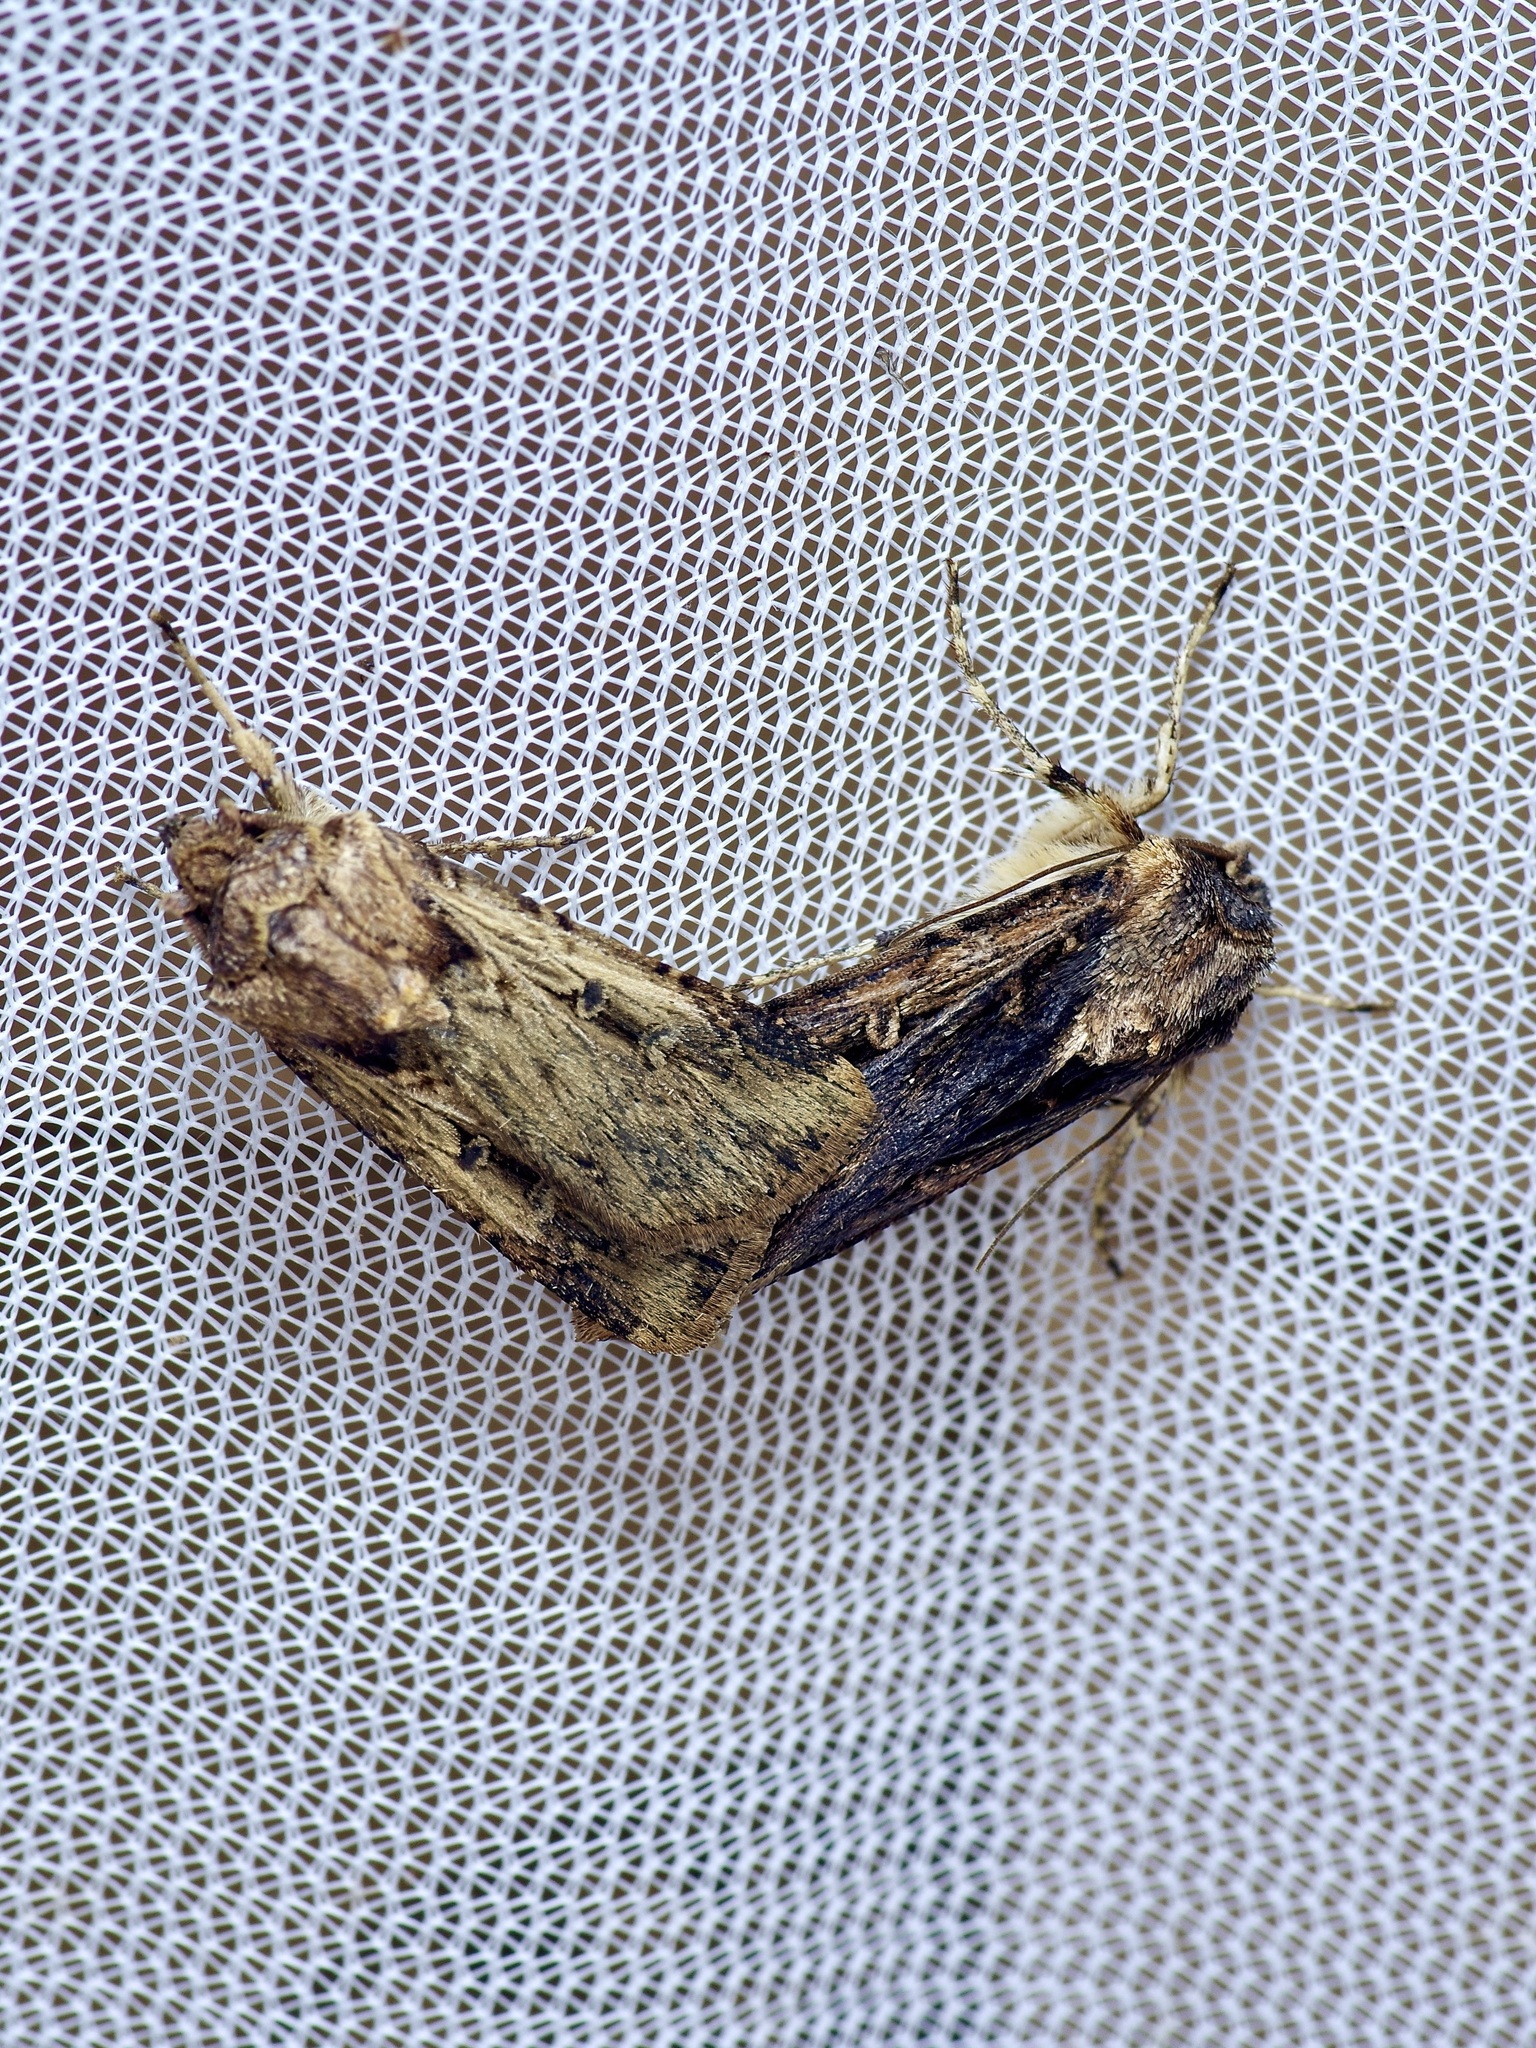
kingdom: Animalia
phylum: Arthropoda
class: Insecta
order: Lepidoptera
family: Noctuidae
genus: Feltia
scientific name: Feltia subterranea
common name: Granulate cutworm
